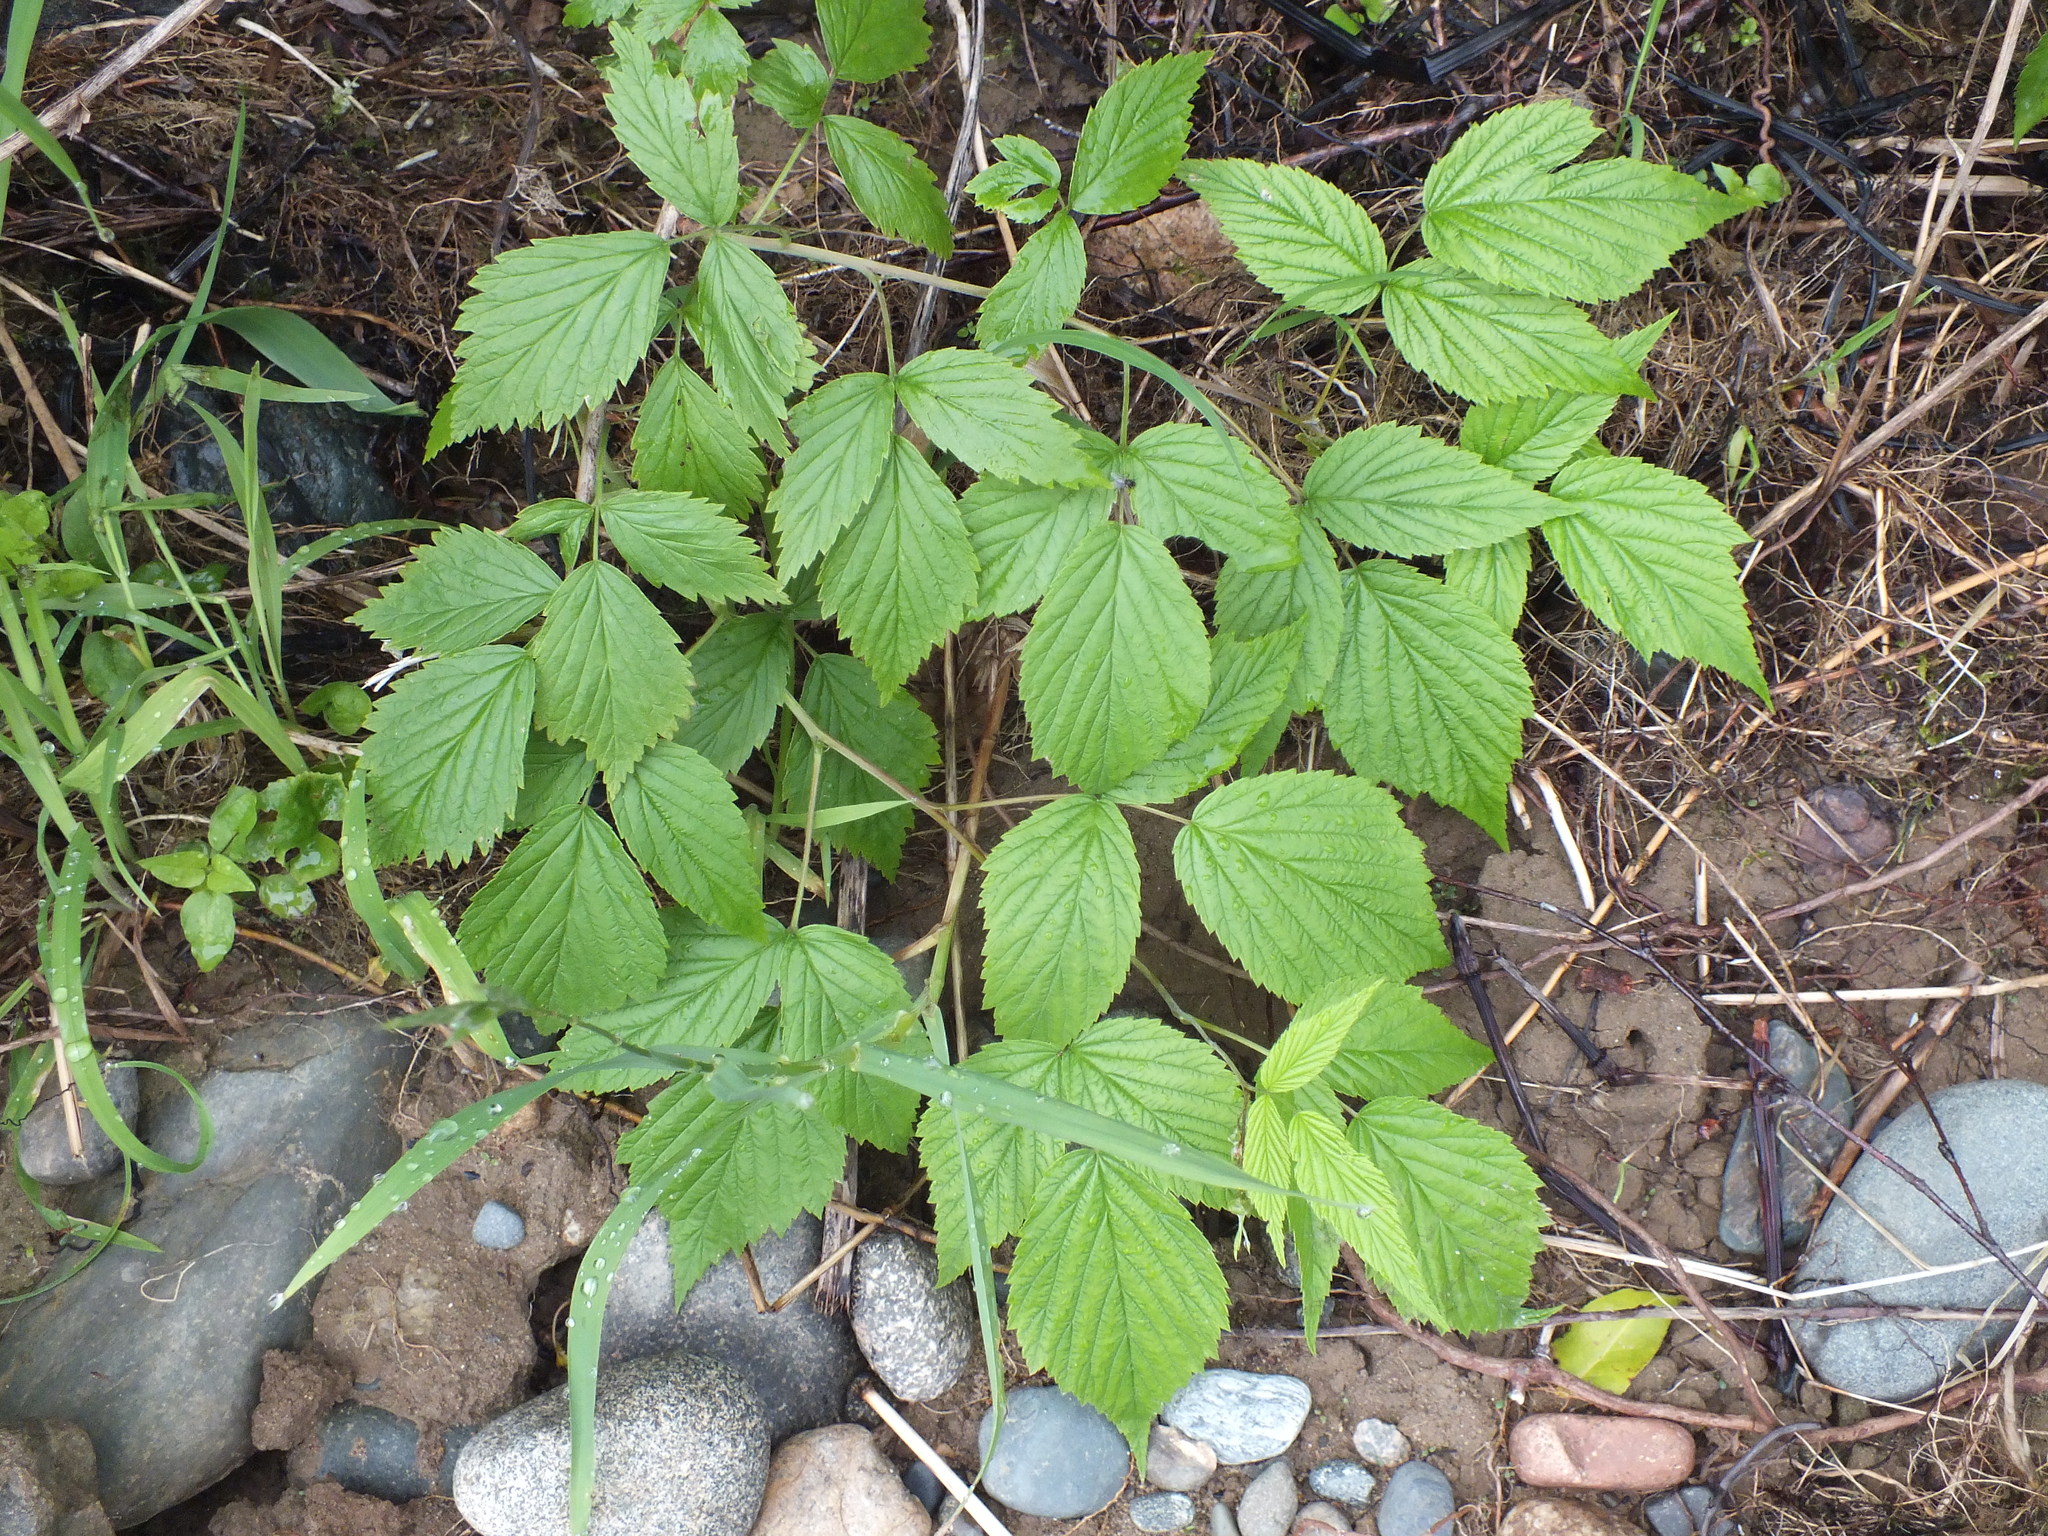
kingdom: Plantae
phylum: Tracheophyta
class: Magnoliopsida
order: Rosales
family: Rosaceae
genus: Rubus
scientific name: Rubus idaeus
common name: Raspberry
